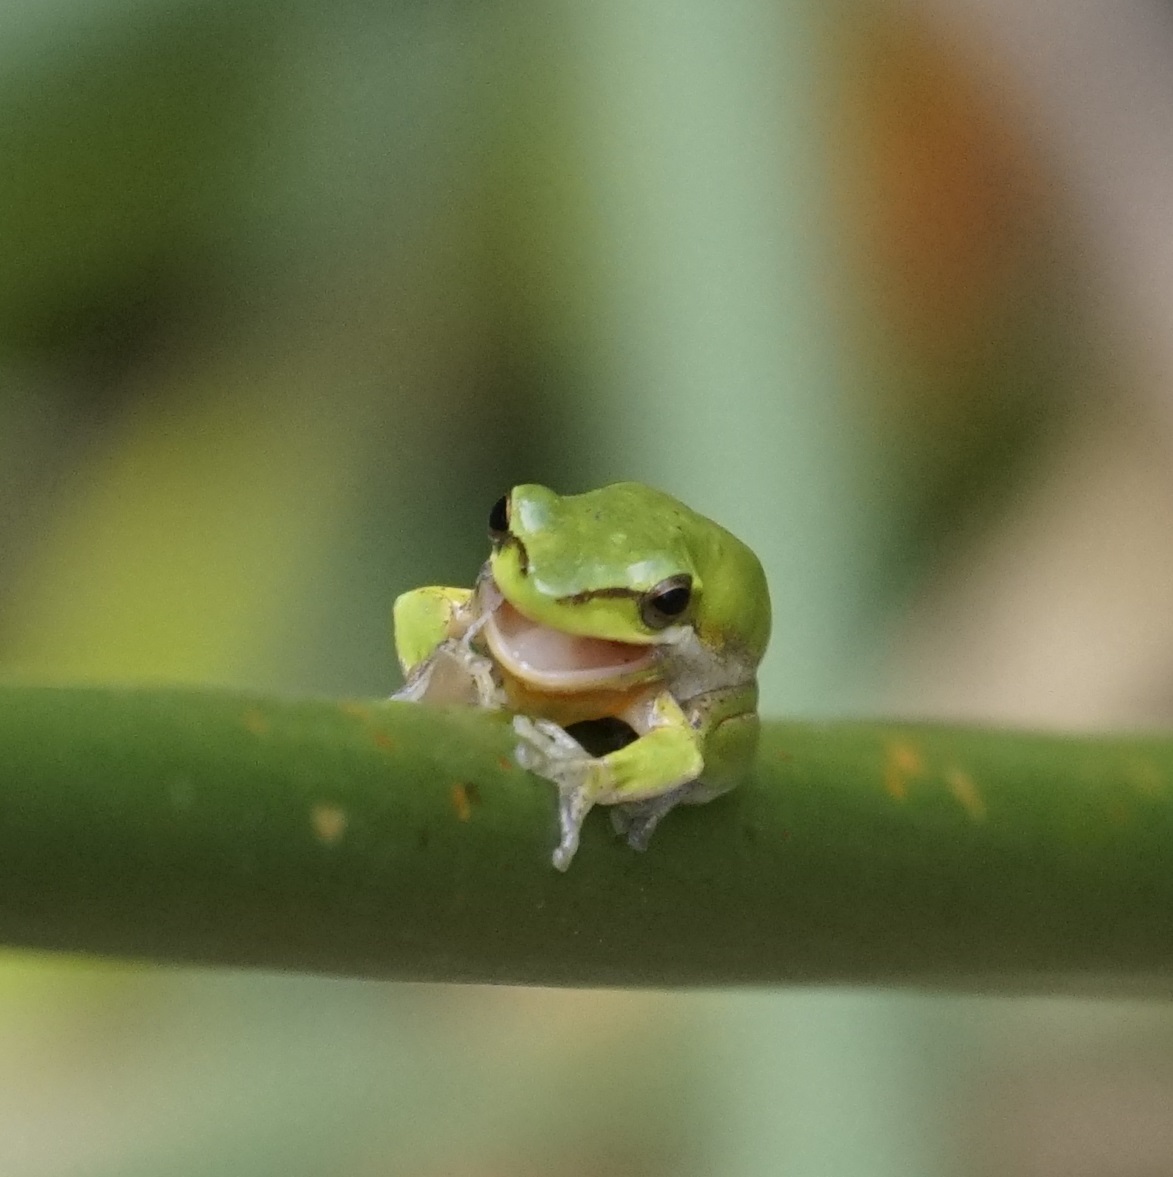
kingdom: Animalia
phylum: Chordata
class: Amphibia
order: Anura
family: Pelodryadidae
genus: Litoria
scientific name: Litoria fallax
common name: Eastern dwarf treefrog
